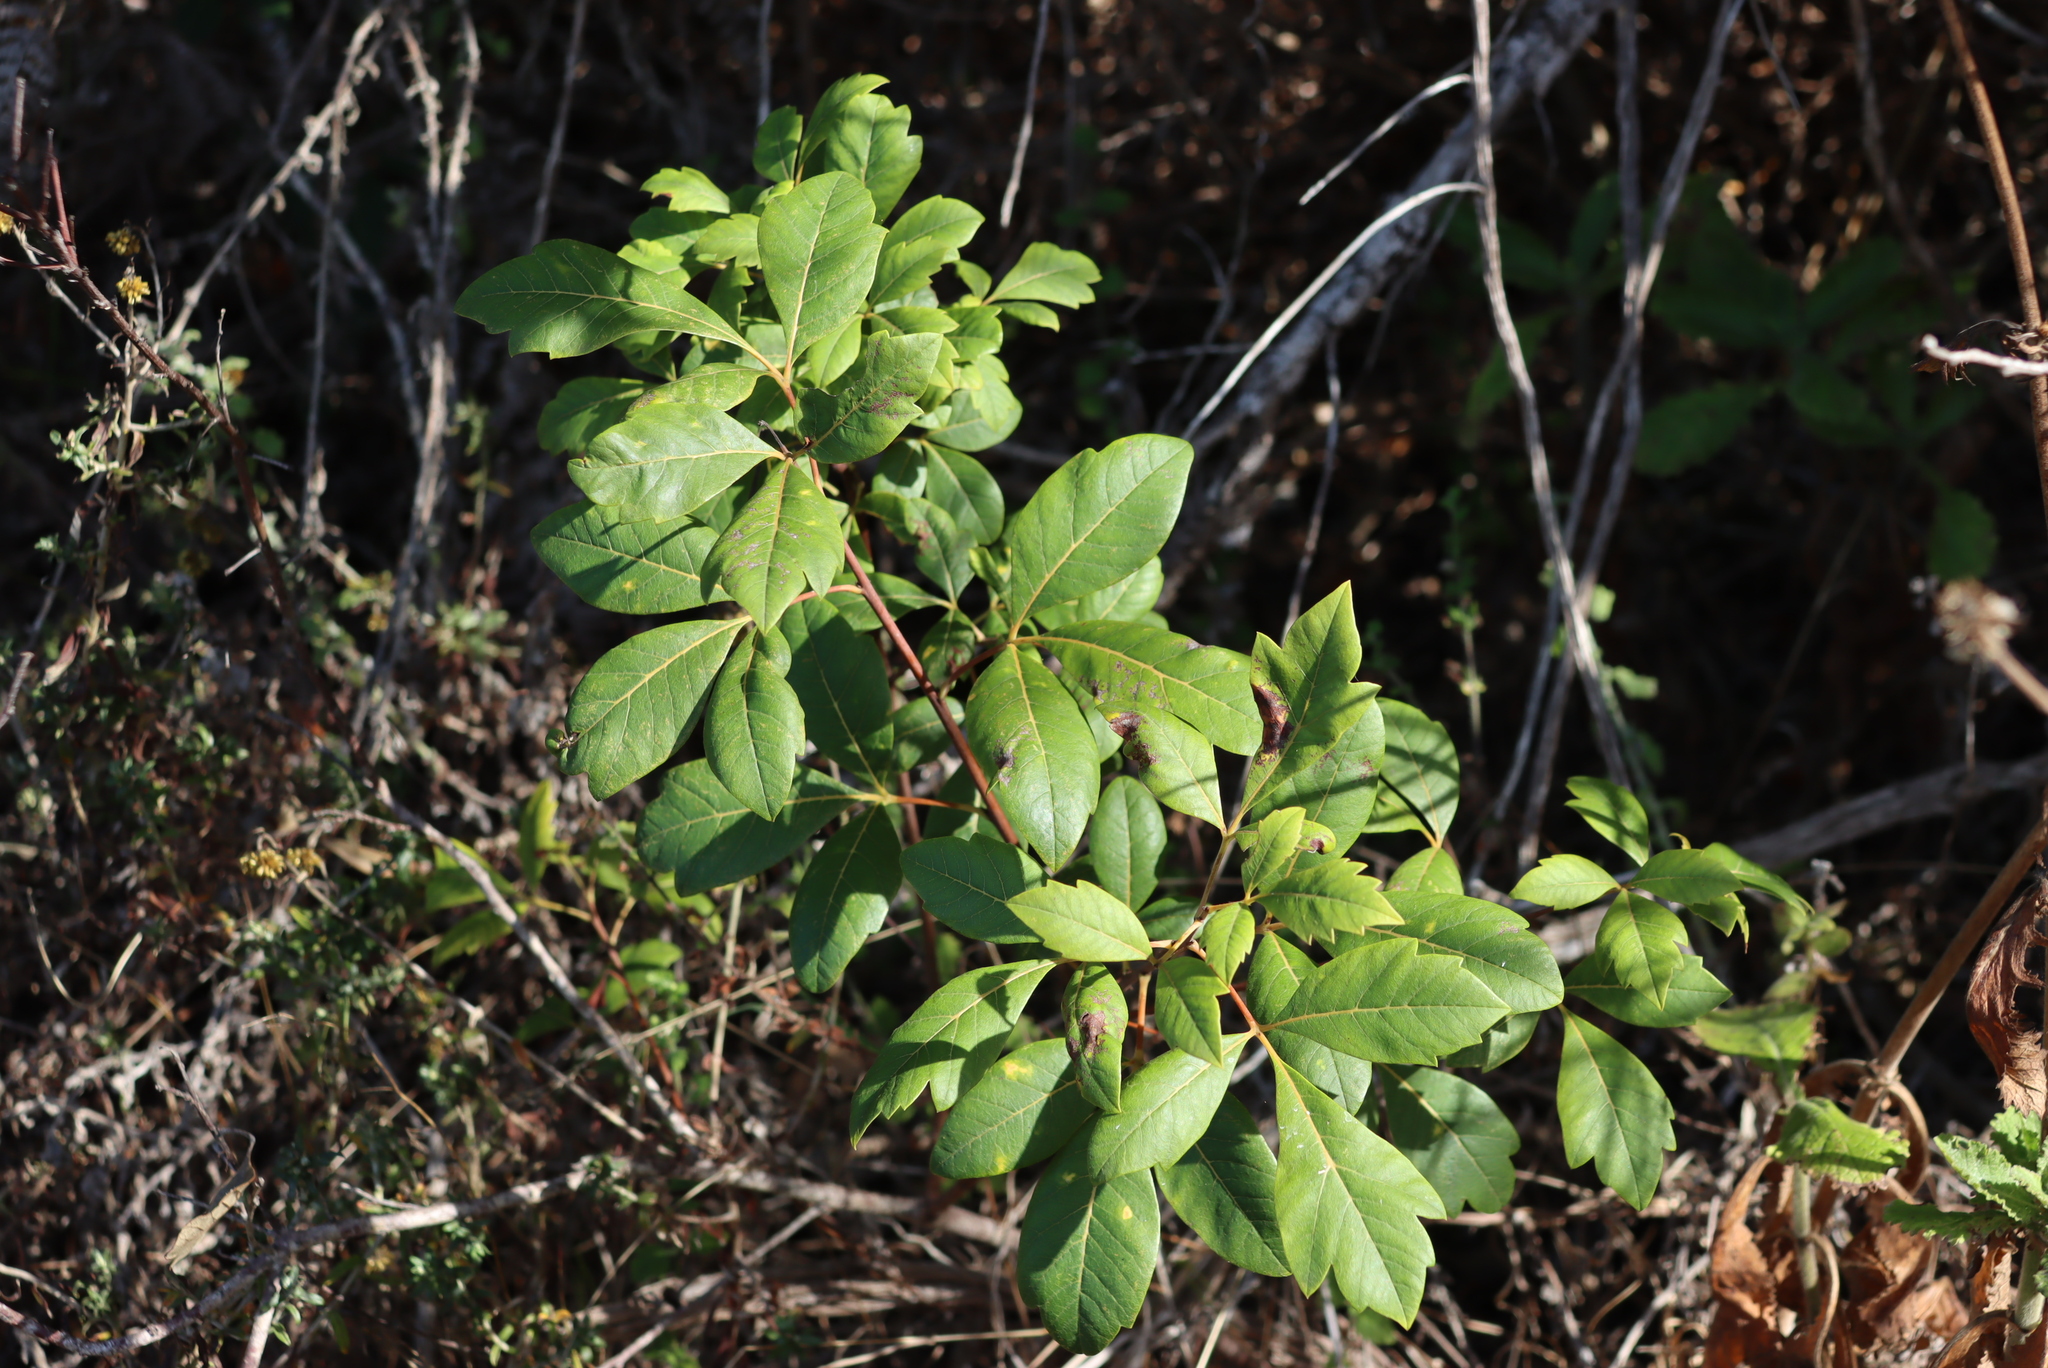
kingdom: Plantae
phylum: Tracheophyta
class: Magnoliopsida
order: Sapindales
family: Anacardiaceae
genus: Searsia
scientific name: Searsia tomentosa
